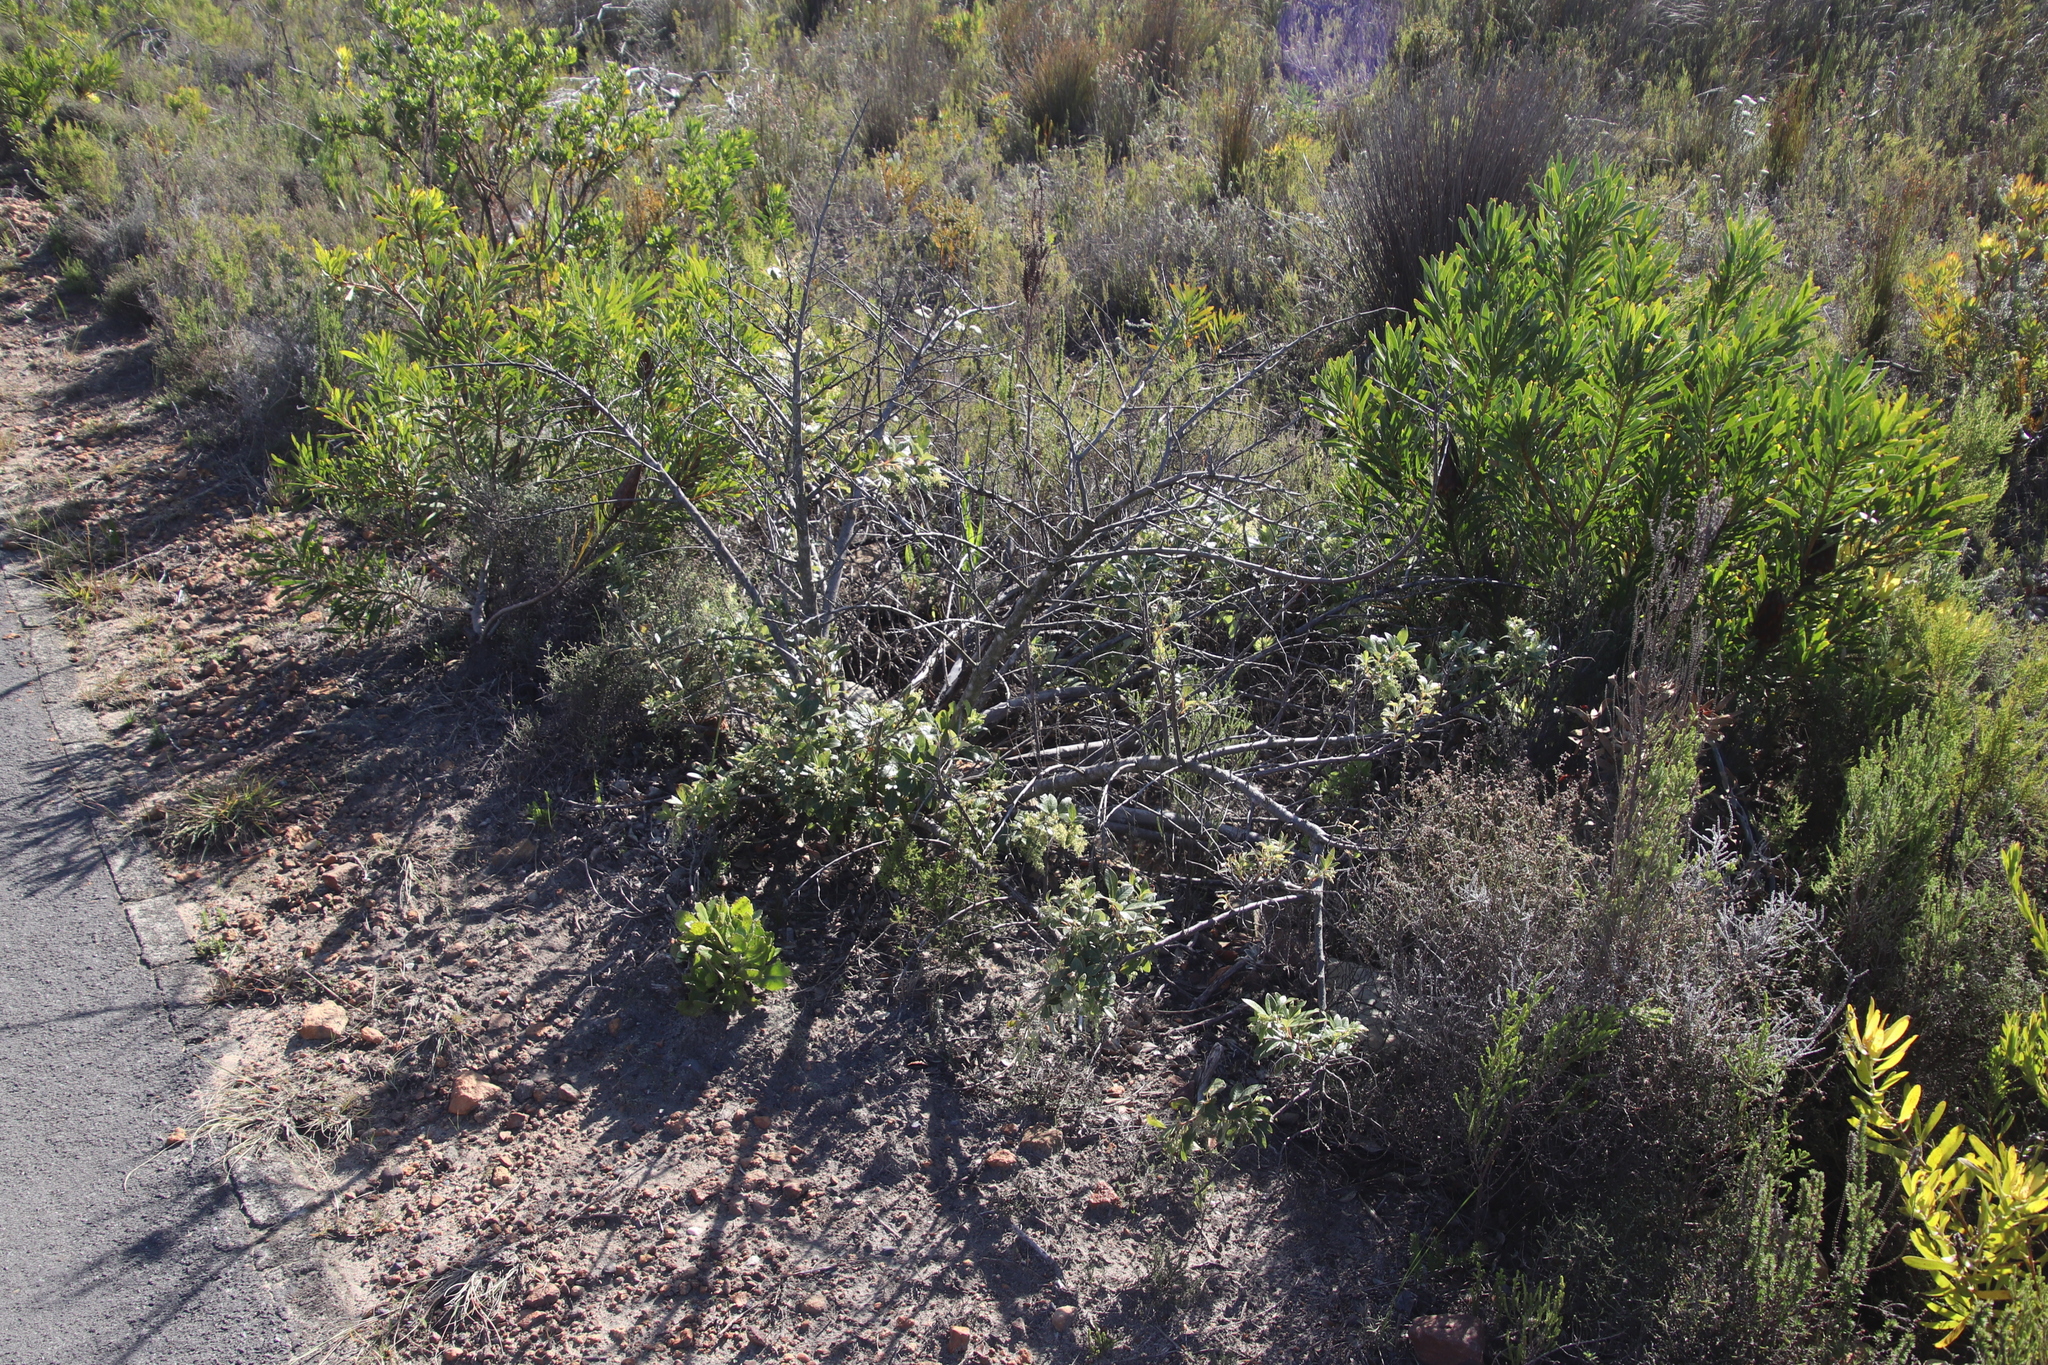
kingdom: Plantae
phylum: Tracheophyta
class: Magnoliopsida
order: Sapindales
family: Anacardiaceae
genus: Searsia
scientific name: Searsia tomentosa
